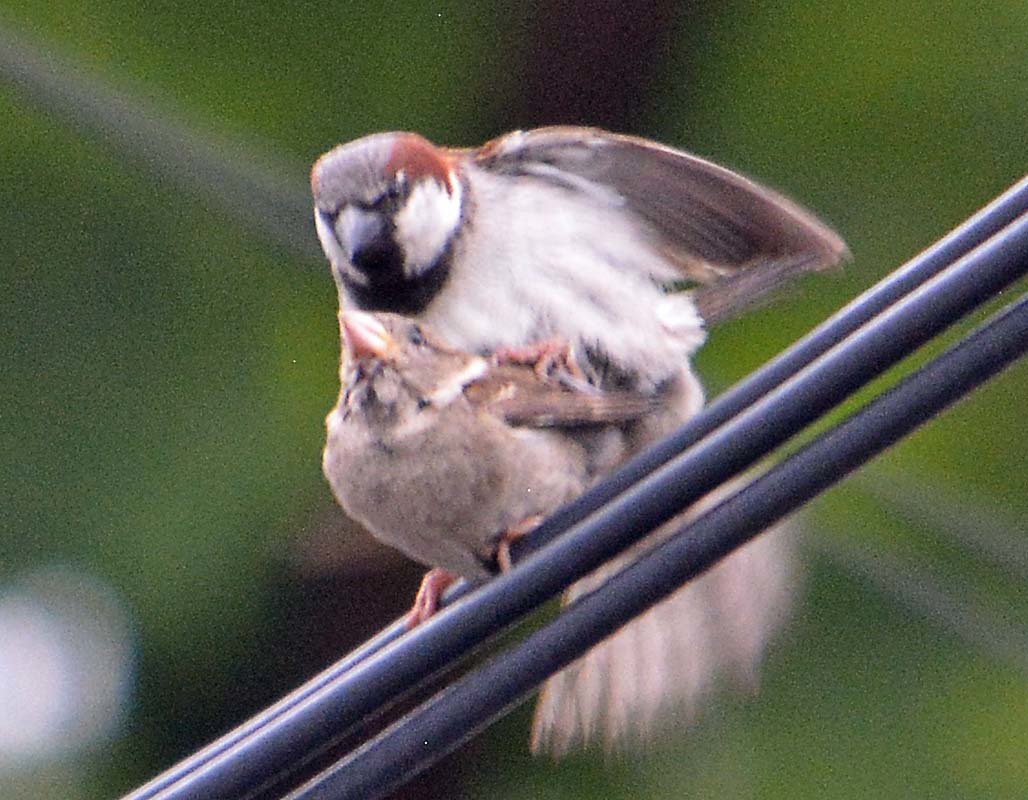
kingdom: Animalia
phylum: Chordata
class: Aves
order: Passeriformes
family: Passeridae
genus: Passer
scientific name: Passer domesticus
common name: House sparrow
